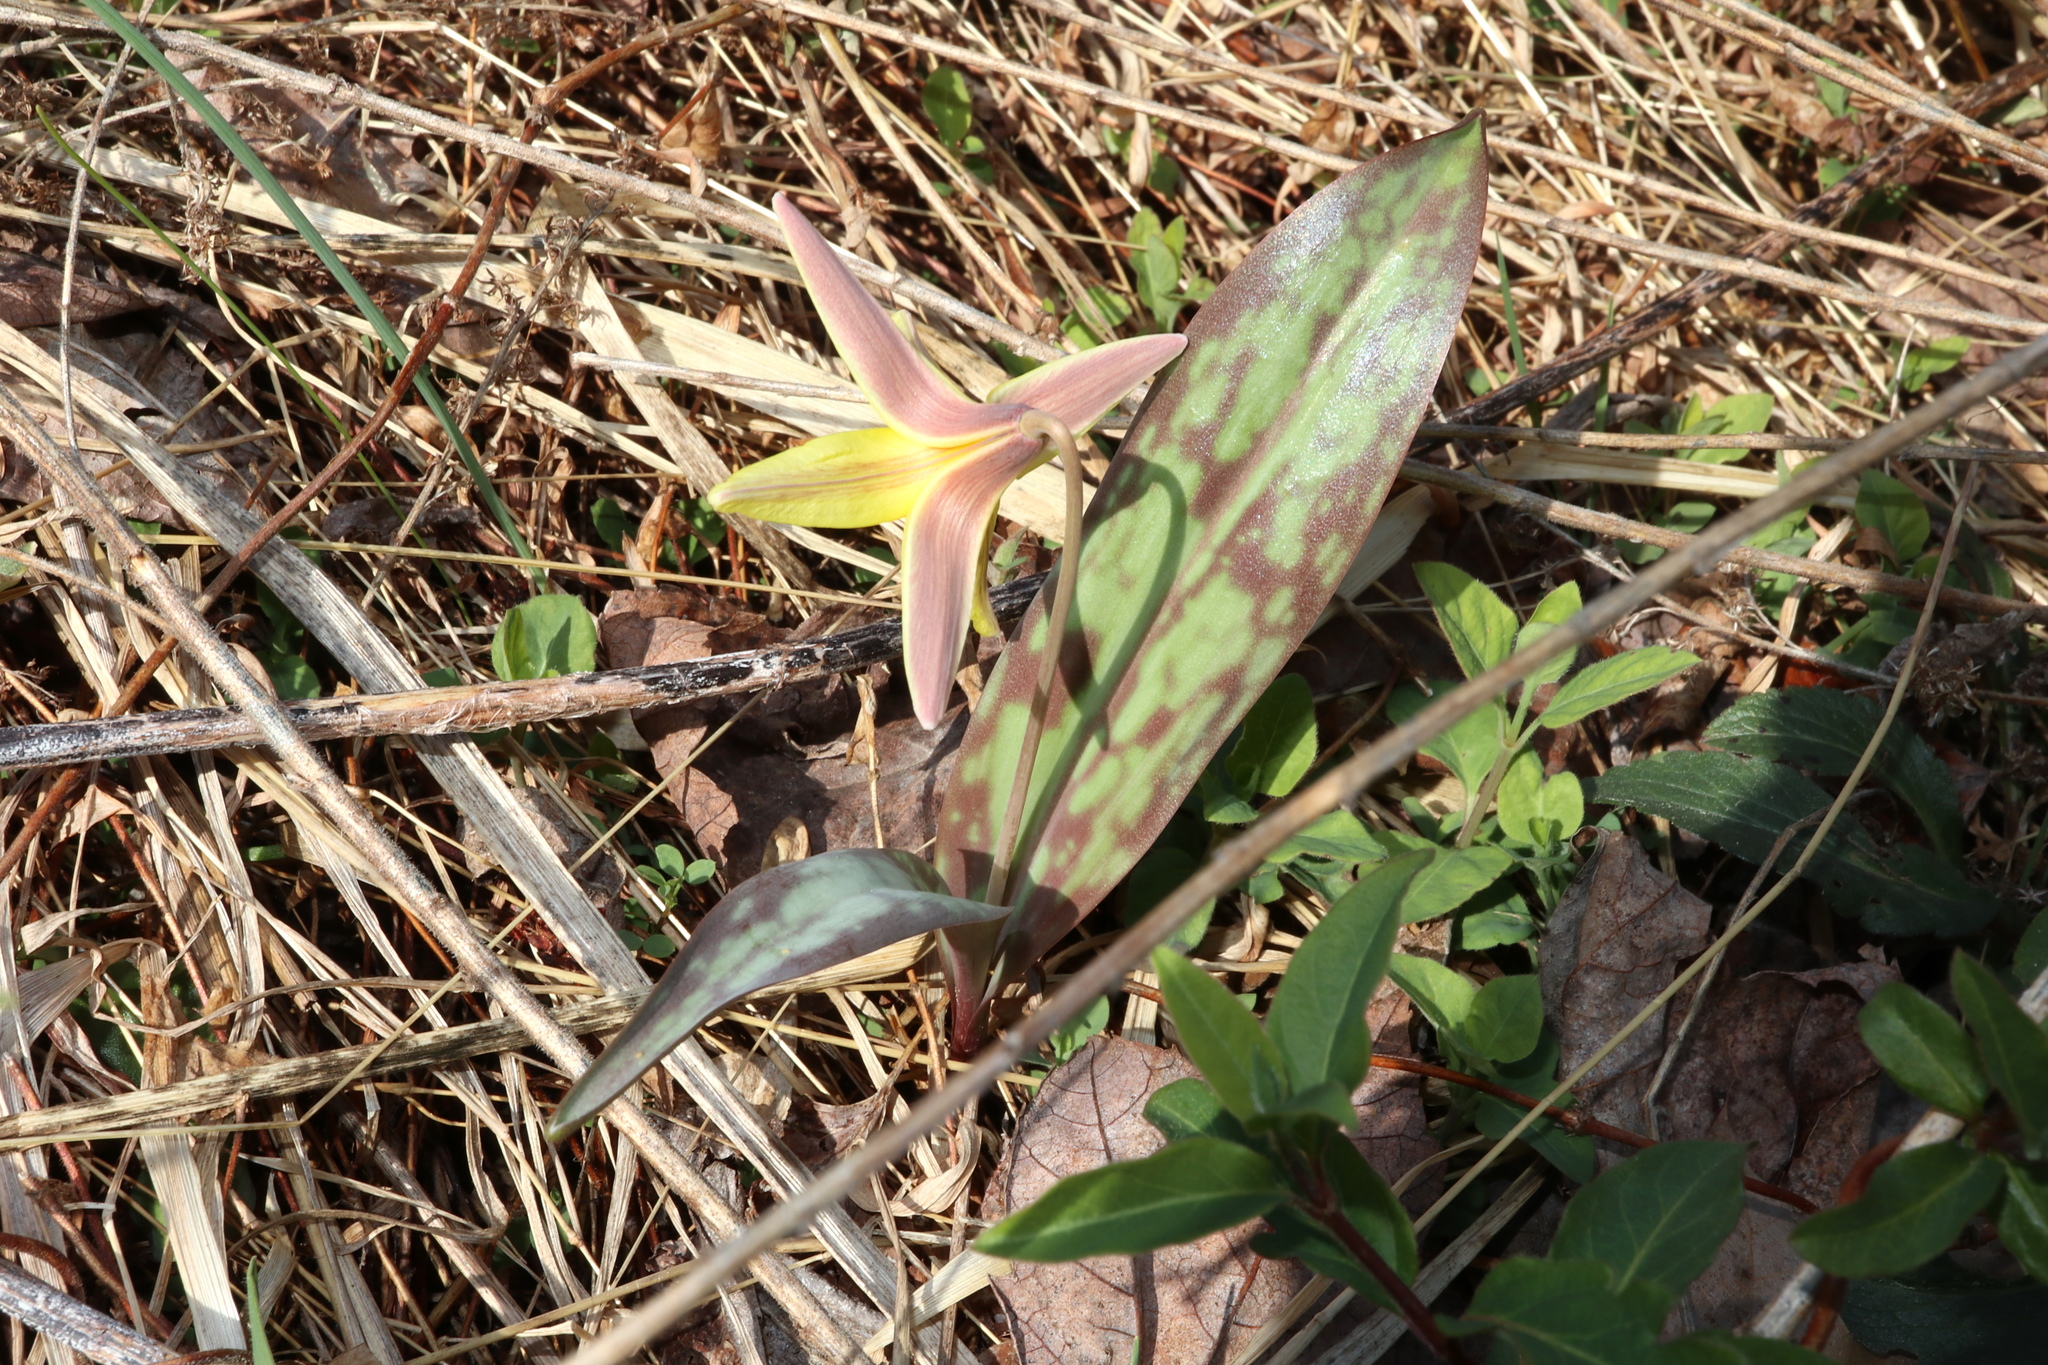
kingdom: Plantae
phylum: Tracheophyta
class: Liliopsida
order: Liliales
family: Liliaceae
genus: Erythronium
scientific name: Erythronium americanum
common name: Yellow adder's-tongue
